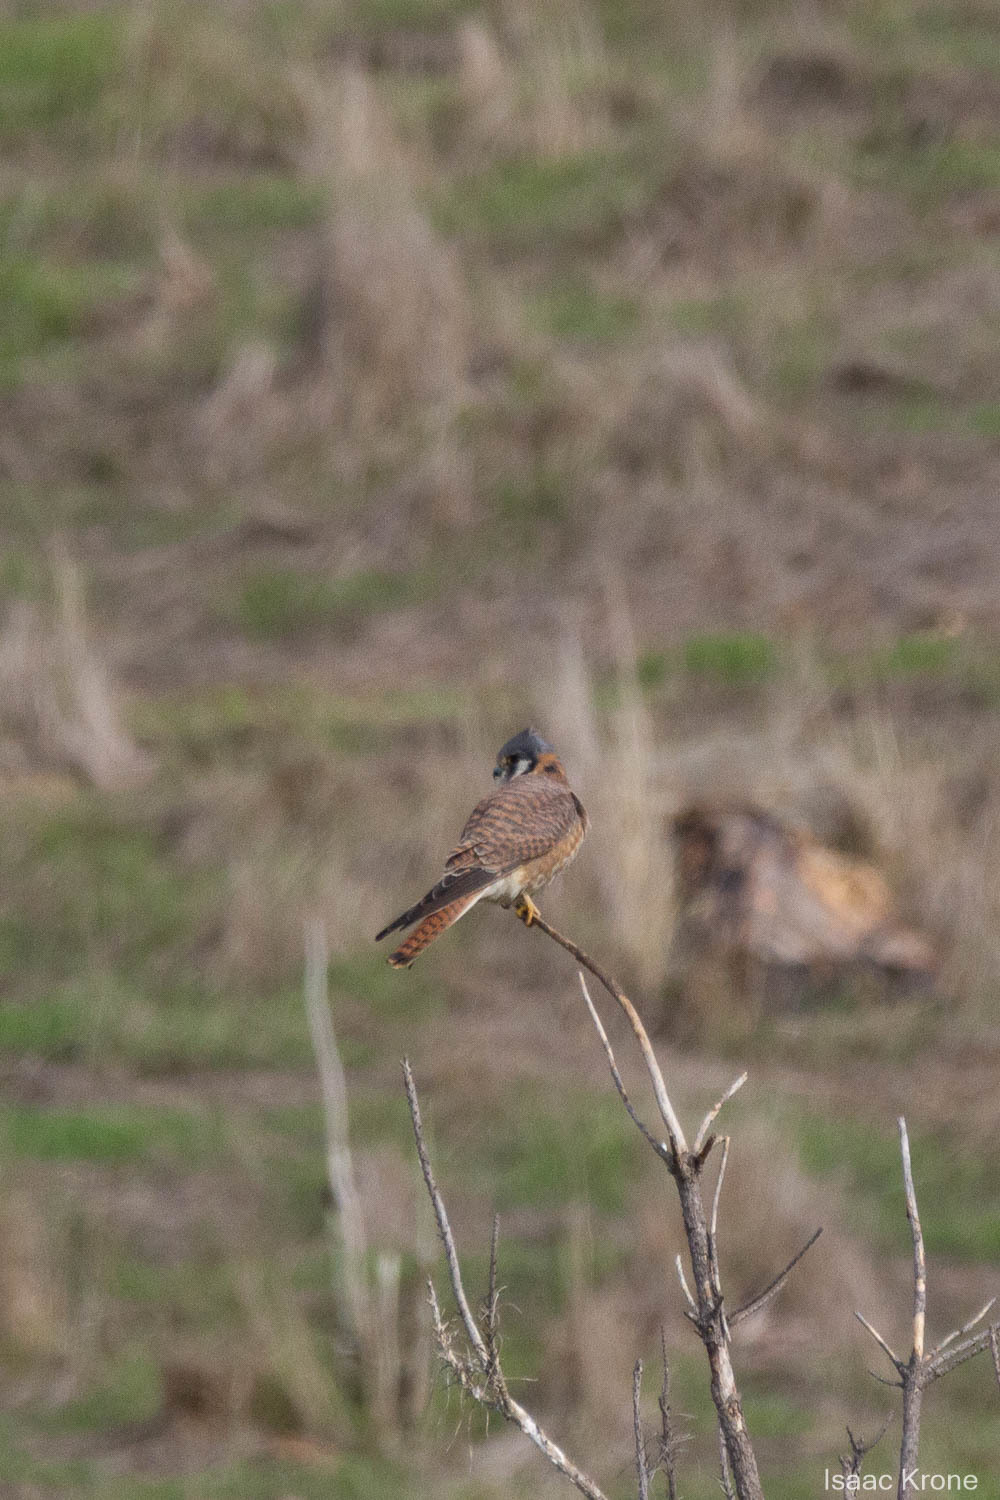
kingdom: Animalia
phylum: Chordata
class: Aves
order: Falconiformes
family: Falconidae
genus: Falco
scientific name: Falco sparverius
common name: American kestrel
